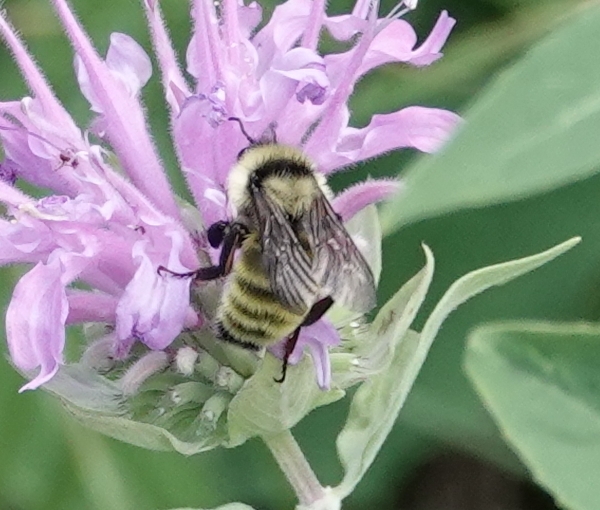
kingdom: Animalia
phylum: Arthropoda
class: Insecta
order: Hymenoptera
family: Apidae
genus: Bombus
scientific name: Bombus fervidus
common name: Yellow bumble bee
